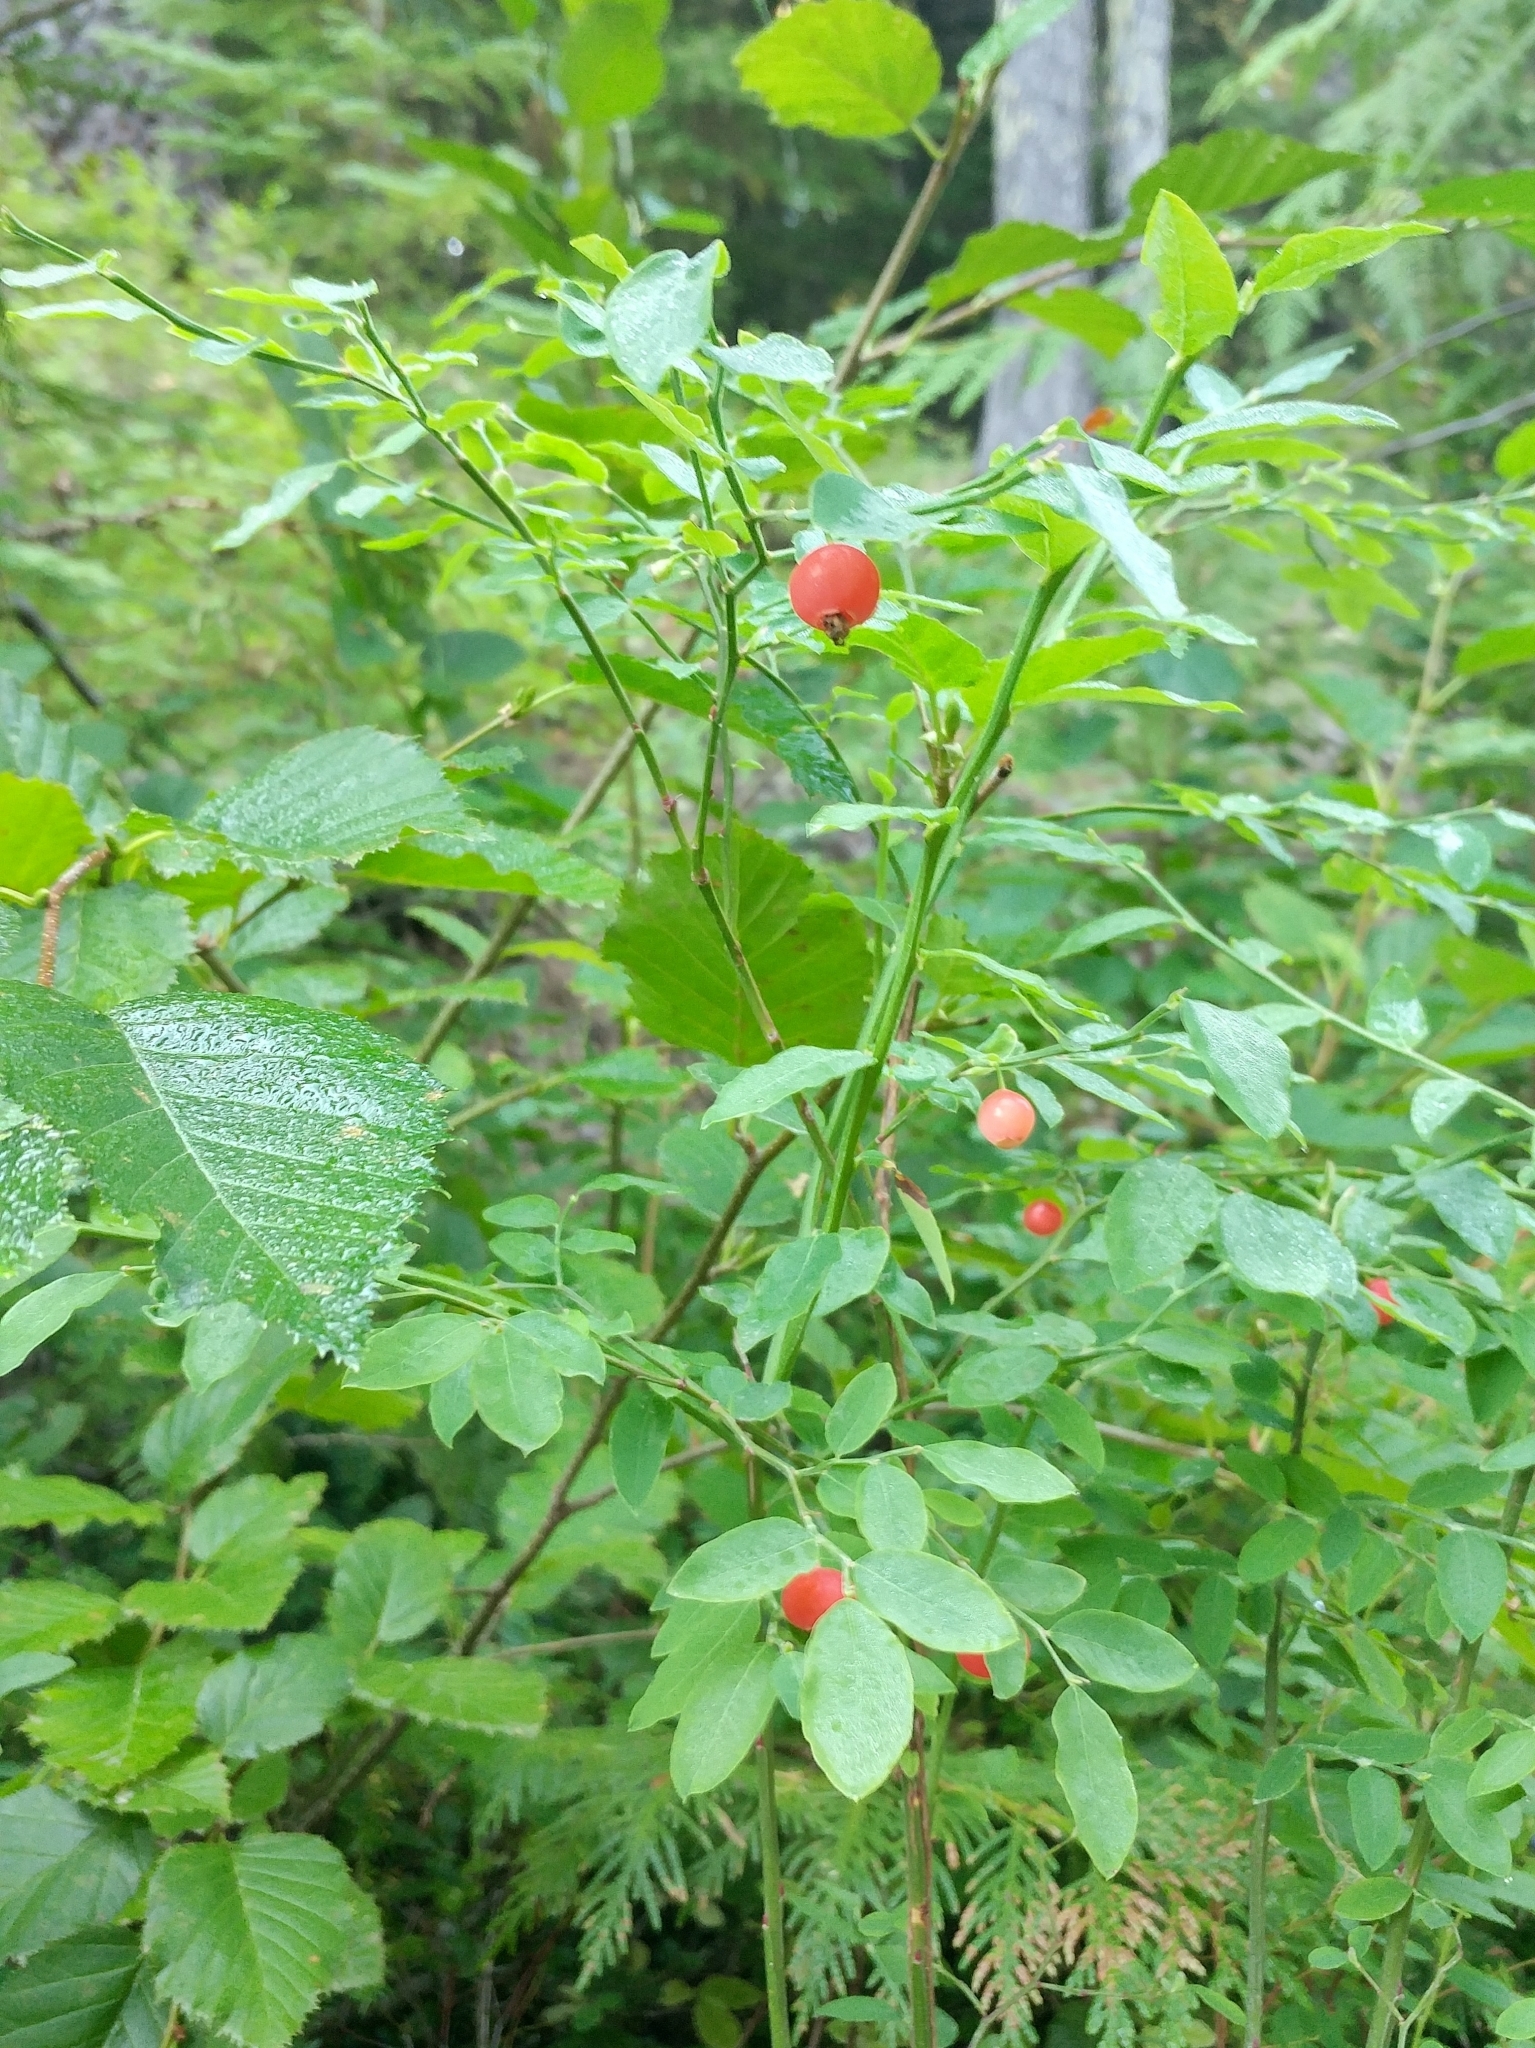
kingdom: Plantae
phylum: Tracheophyta
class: Magnoliopsida
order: Ericales
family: Ericaceae
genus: Vaccinium
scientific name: Vaccinium parvifolium
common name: Red-huckleberry
